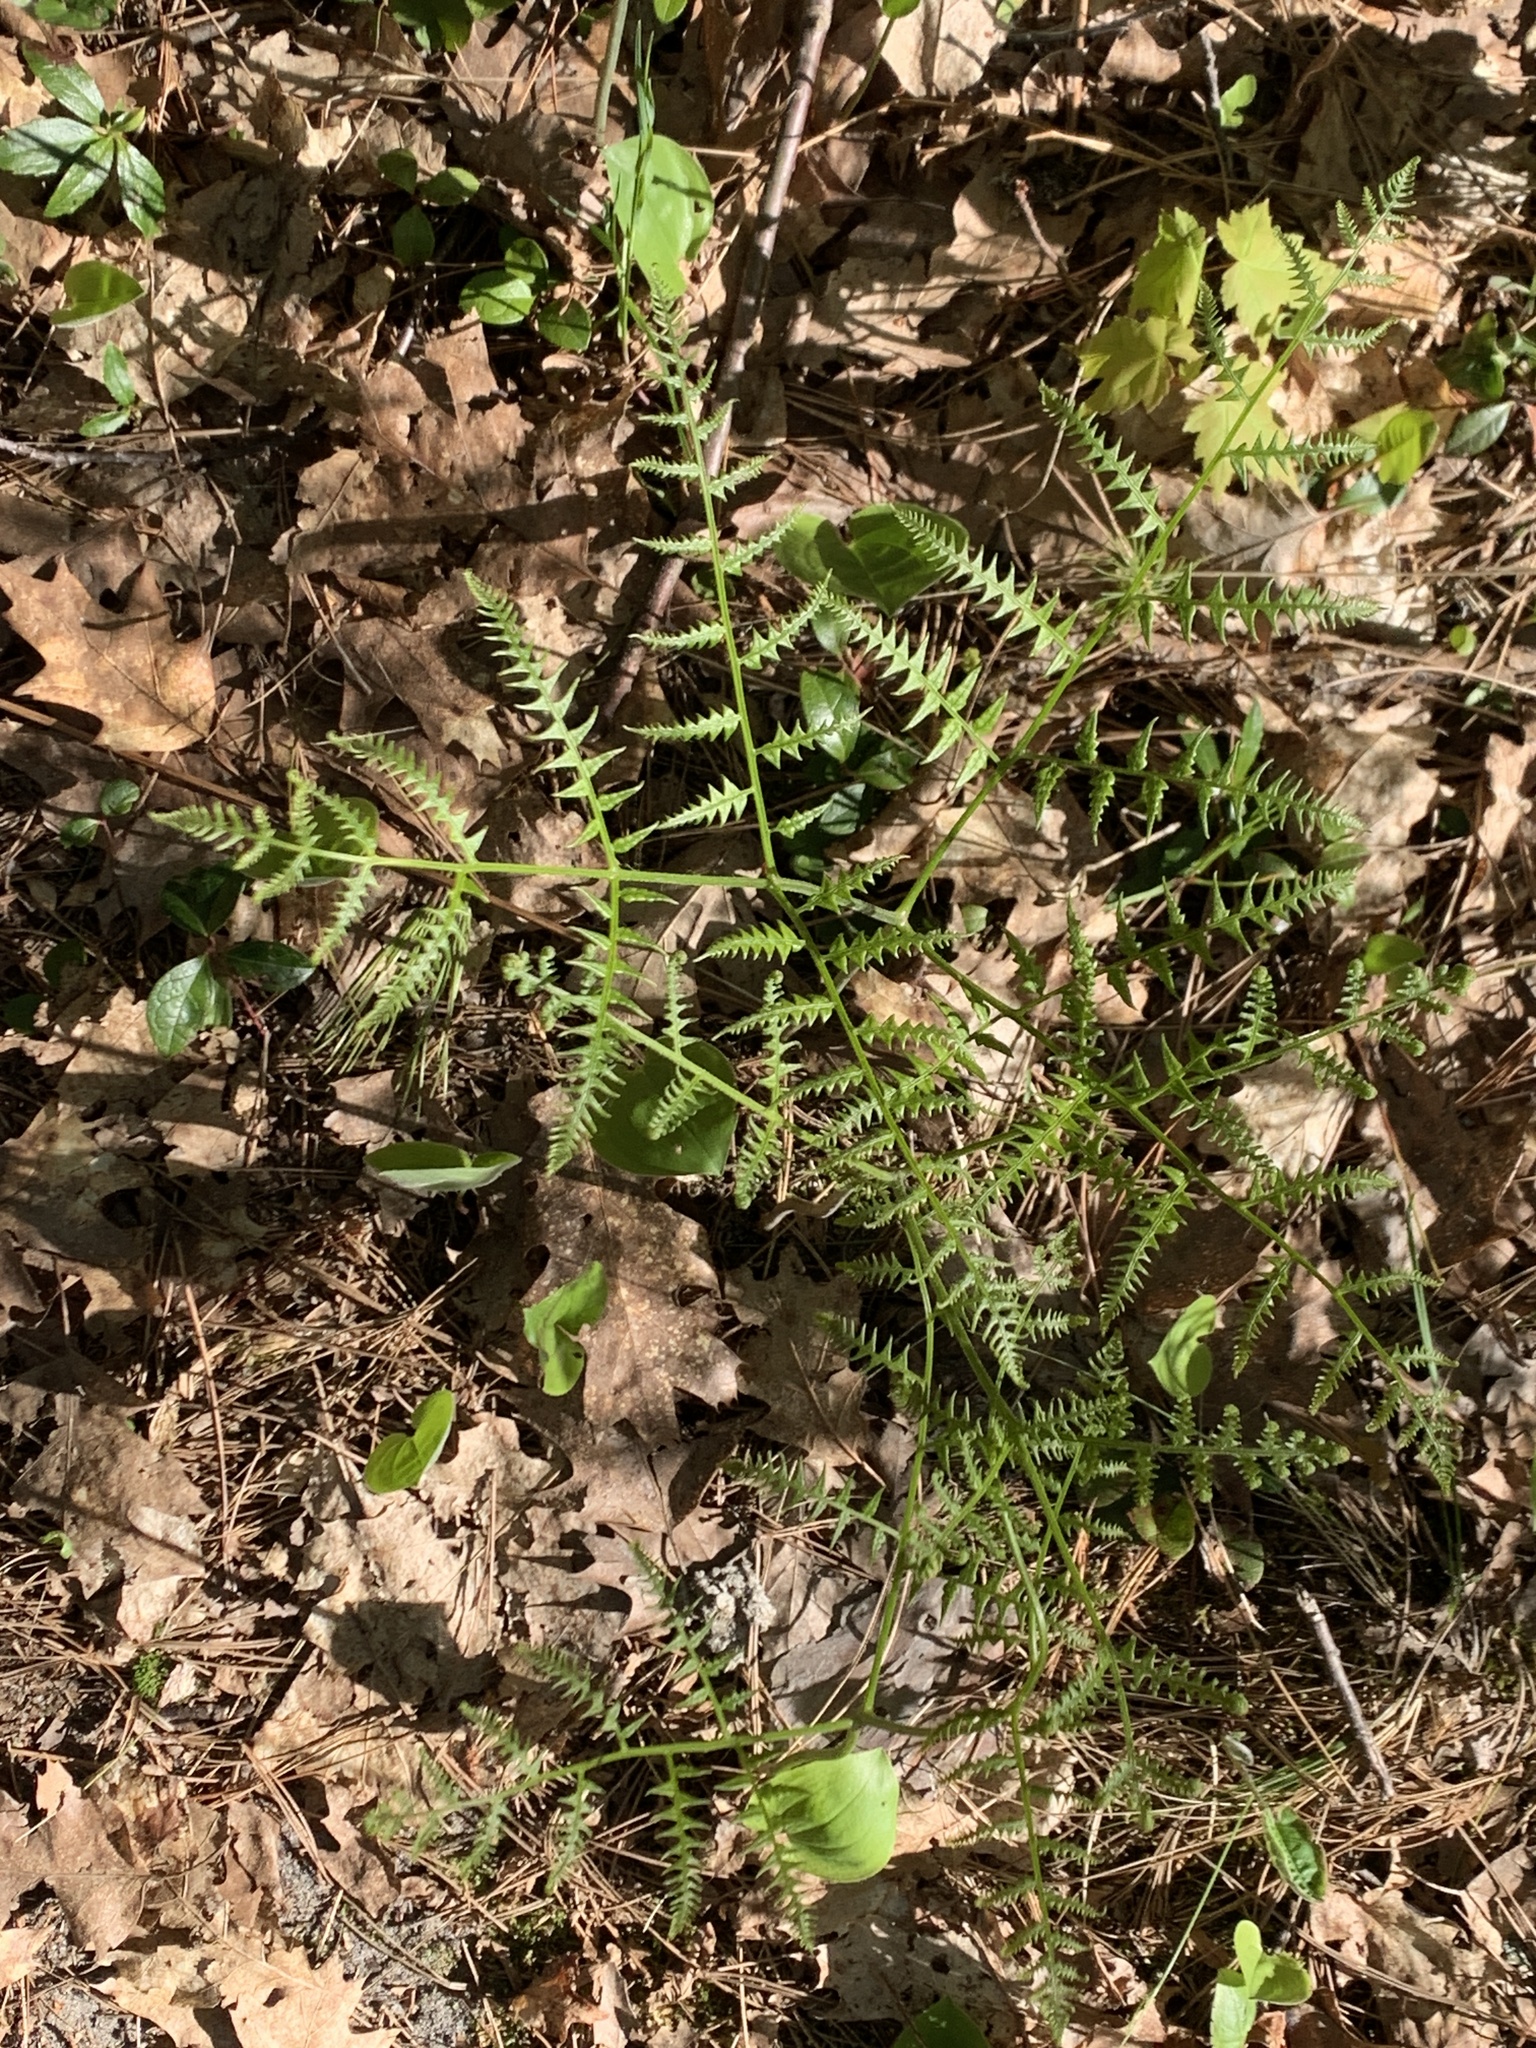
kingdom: Plantae
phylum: Tracheophyta
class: Polypodiopsida
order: Polypodiales
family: Dennstaedtiaceae
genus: Pteridium
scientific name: Pteridium aquilinum
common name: Bracken
